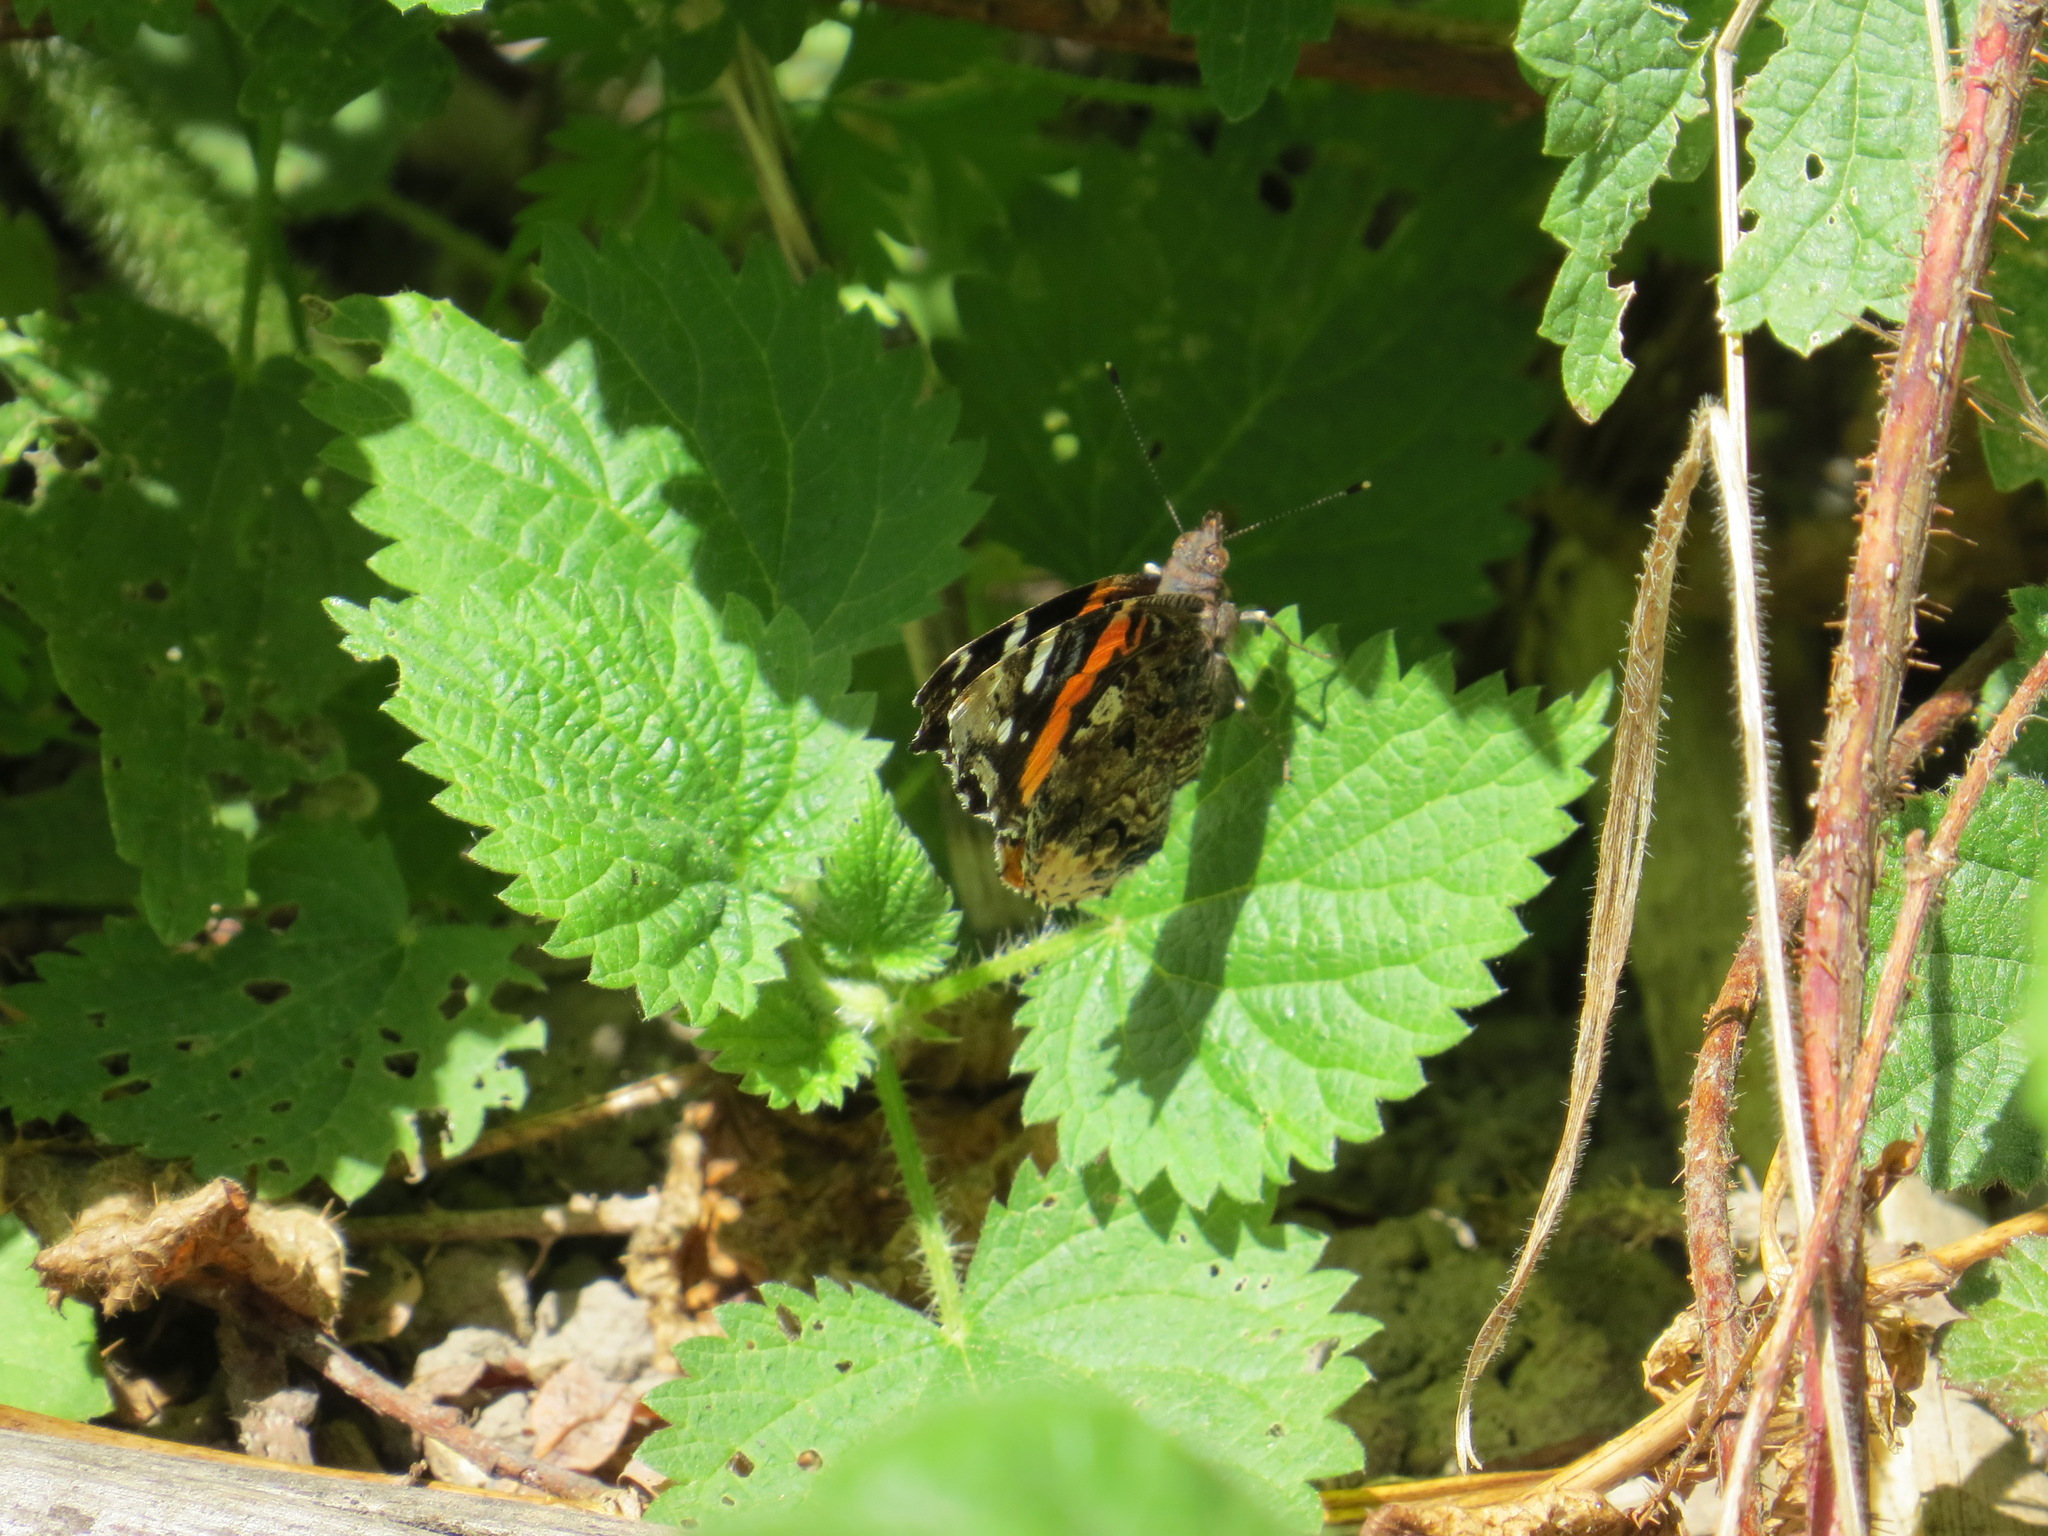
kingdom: Animalia
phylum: Arthropoda
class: Insecta
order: Lepidoptera
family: Nymphalidae
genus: Vanessa
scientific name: Vanessa atalanta
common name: Red admiral
